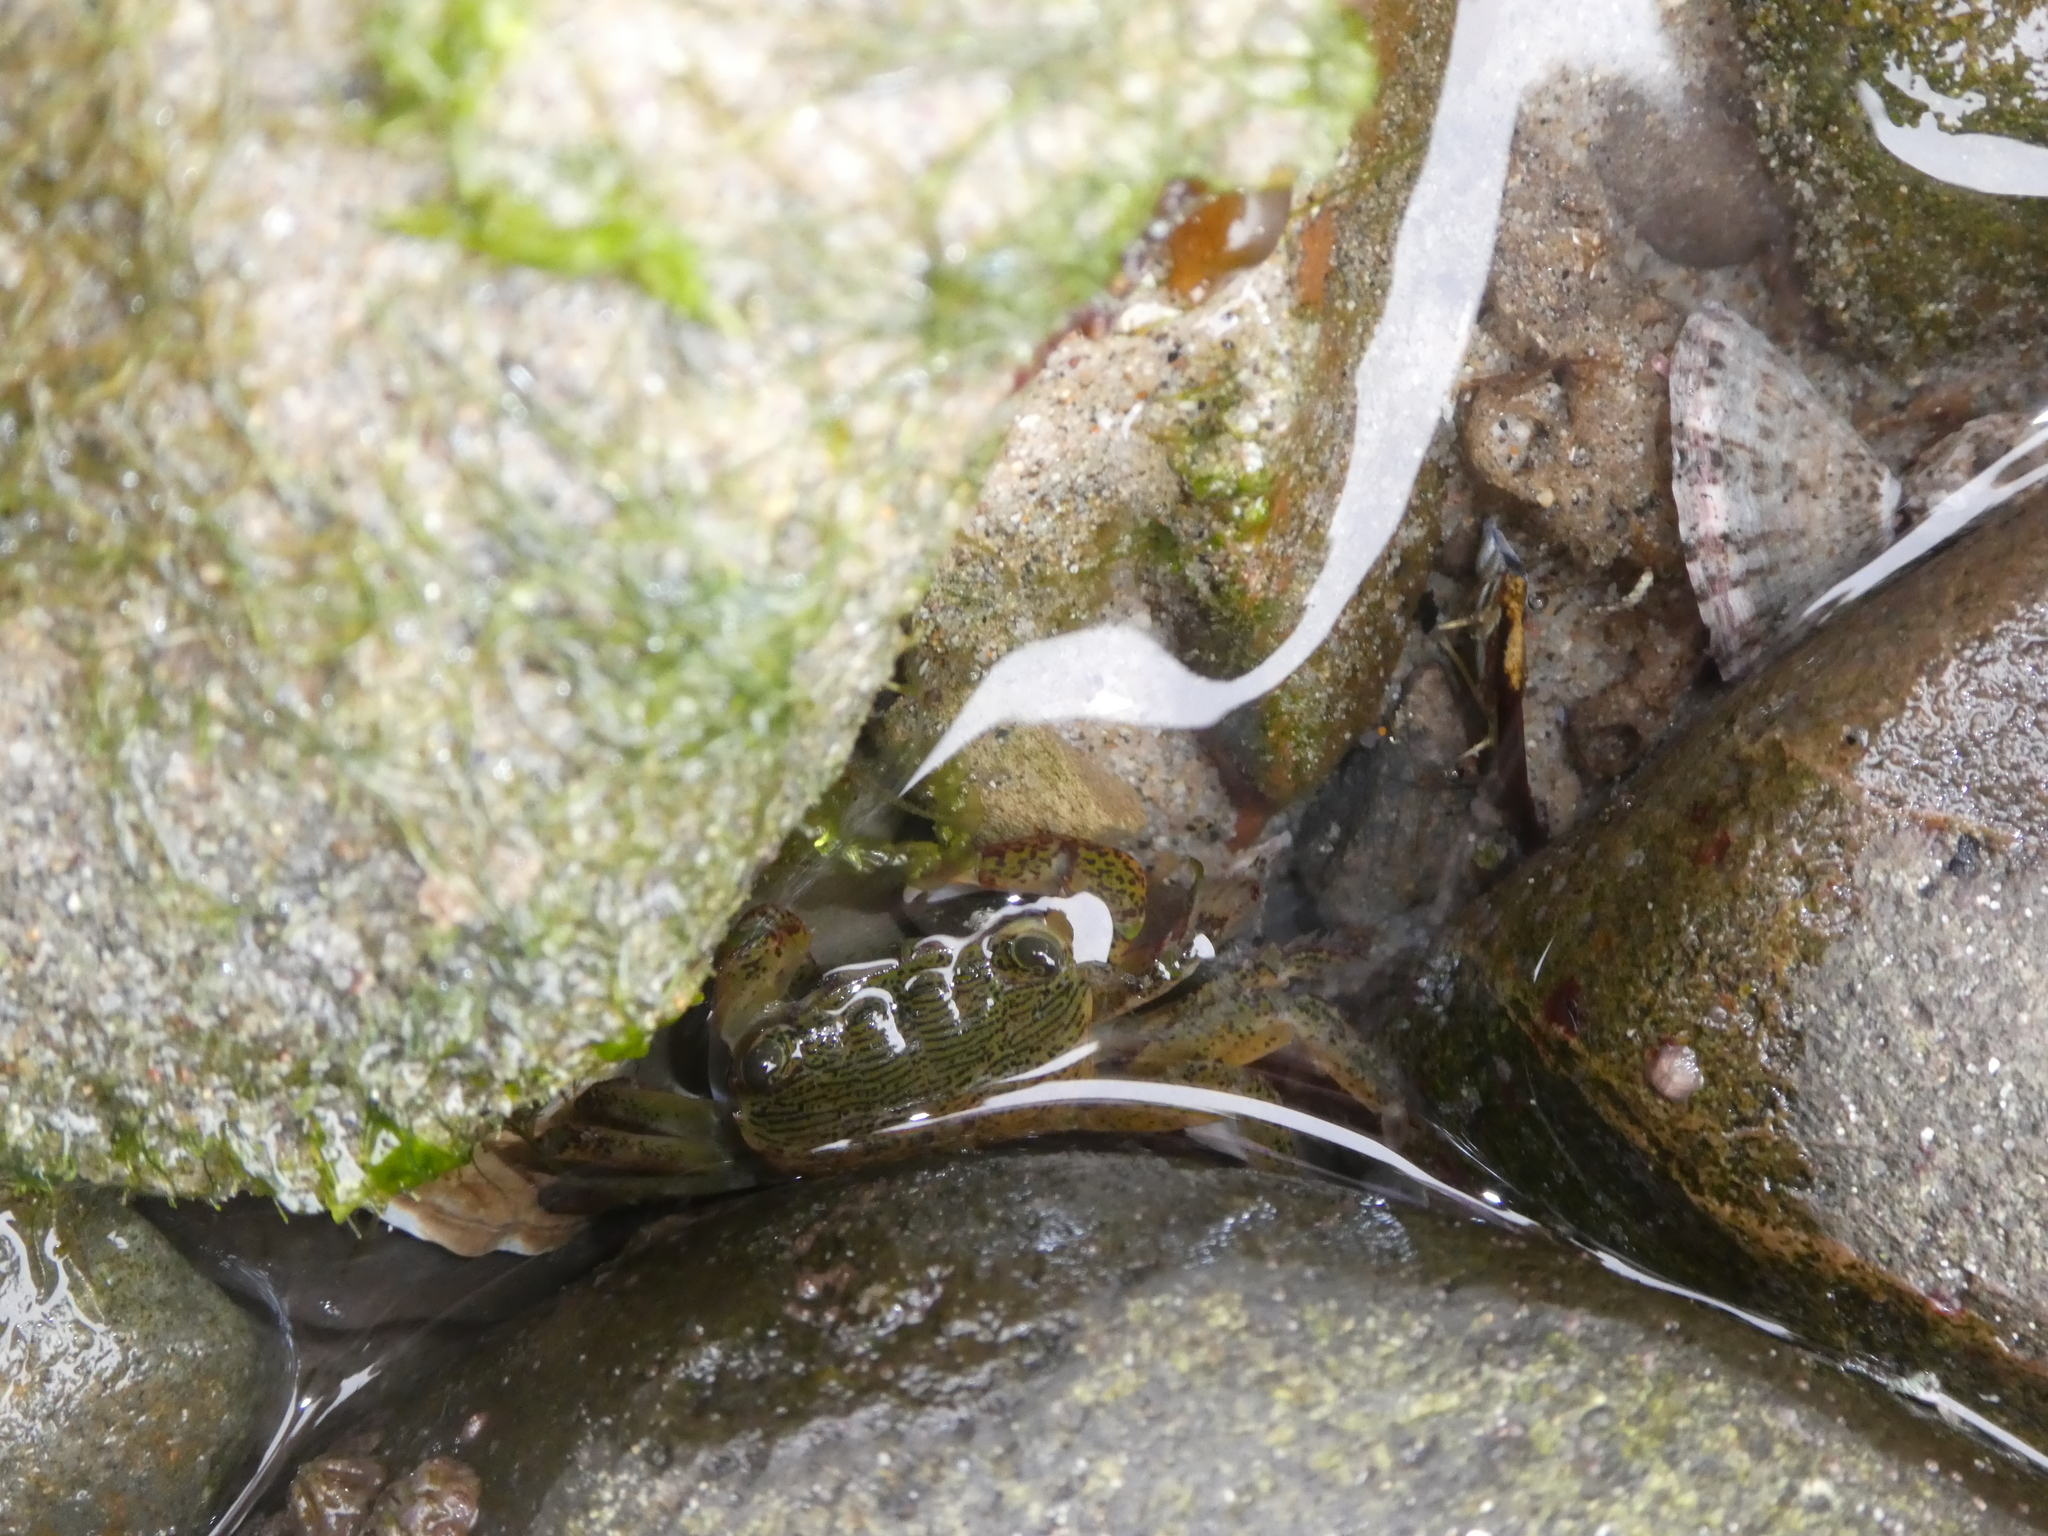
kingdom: Animalia
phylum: Arthropoda
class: Malacostraca
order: Decapoda
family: Grapsidae
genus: Pachygrapsus
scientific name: Pachygrapsus crassipes
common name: Striped shore crab
